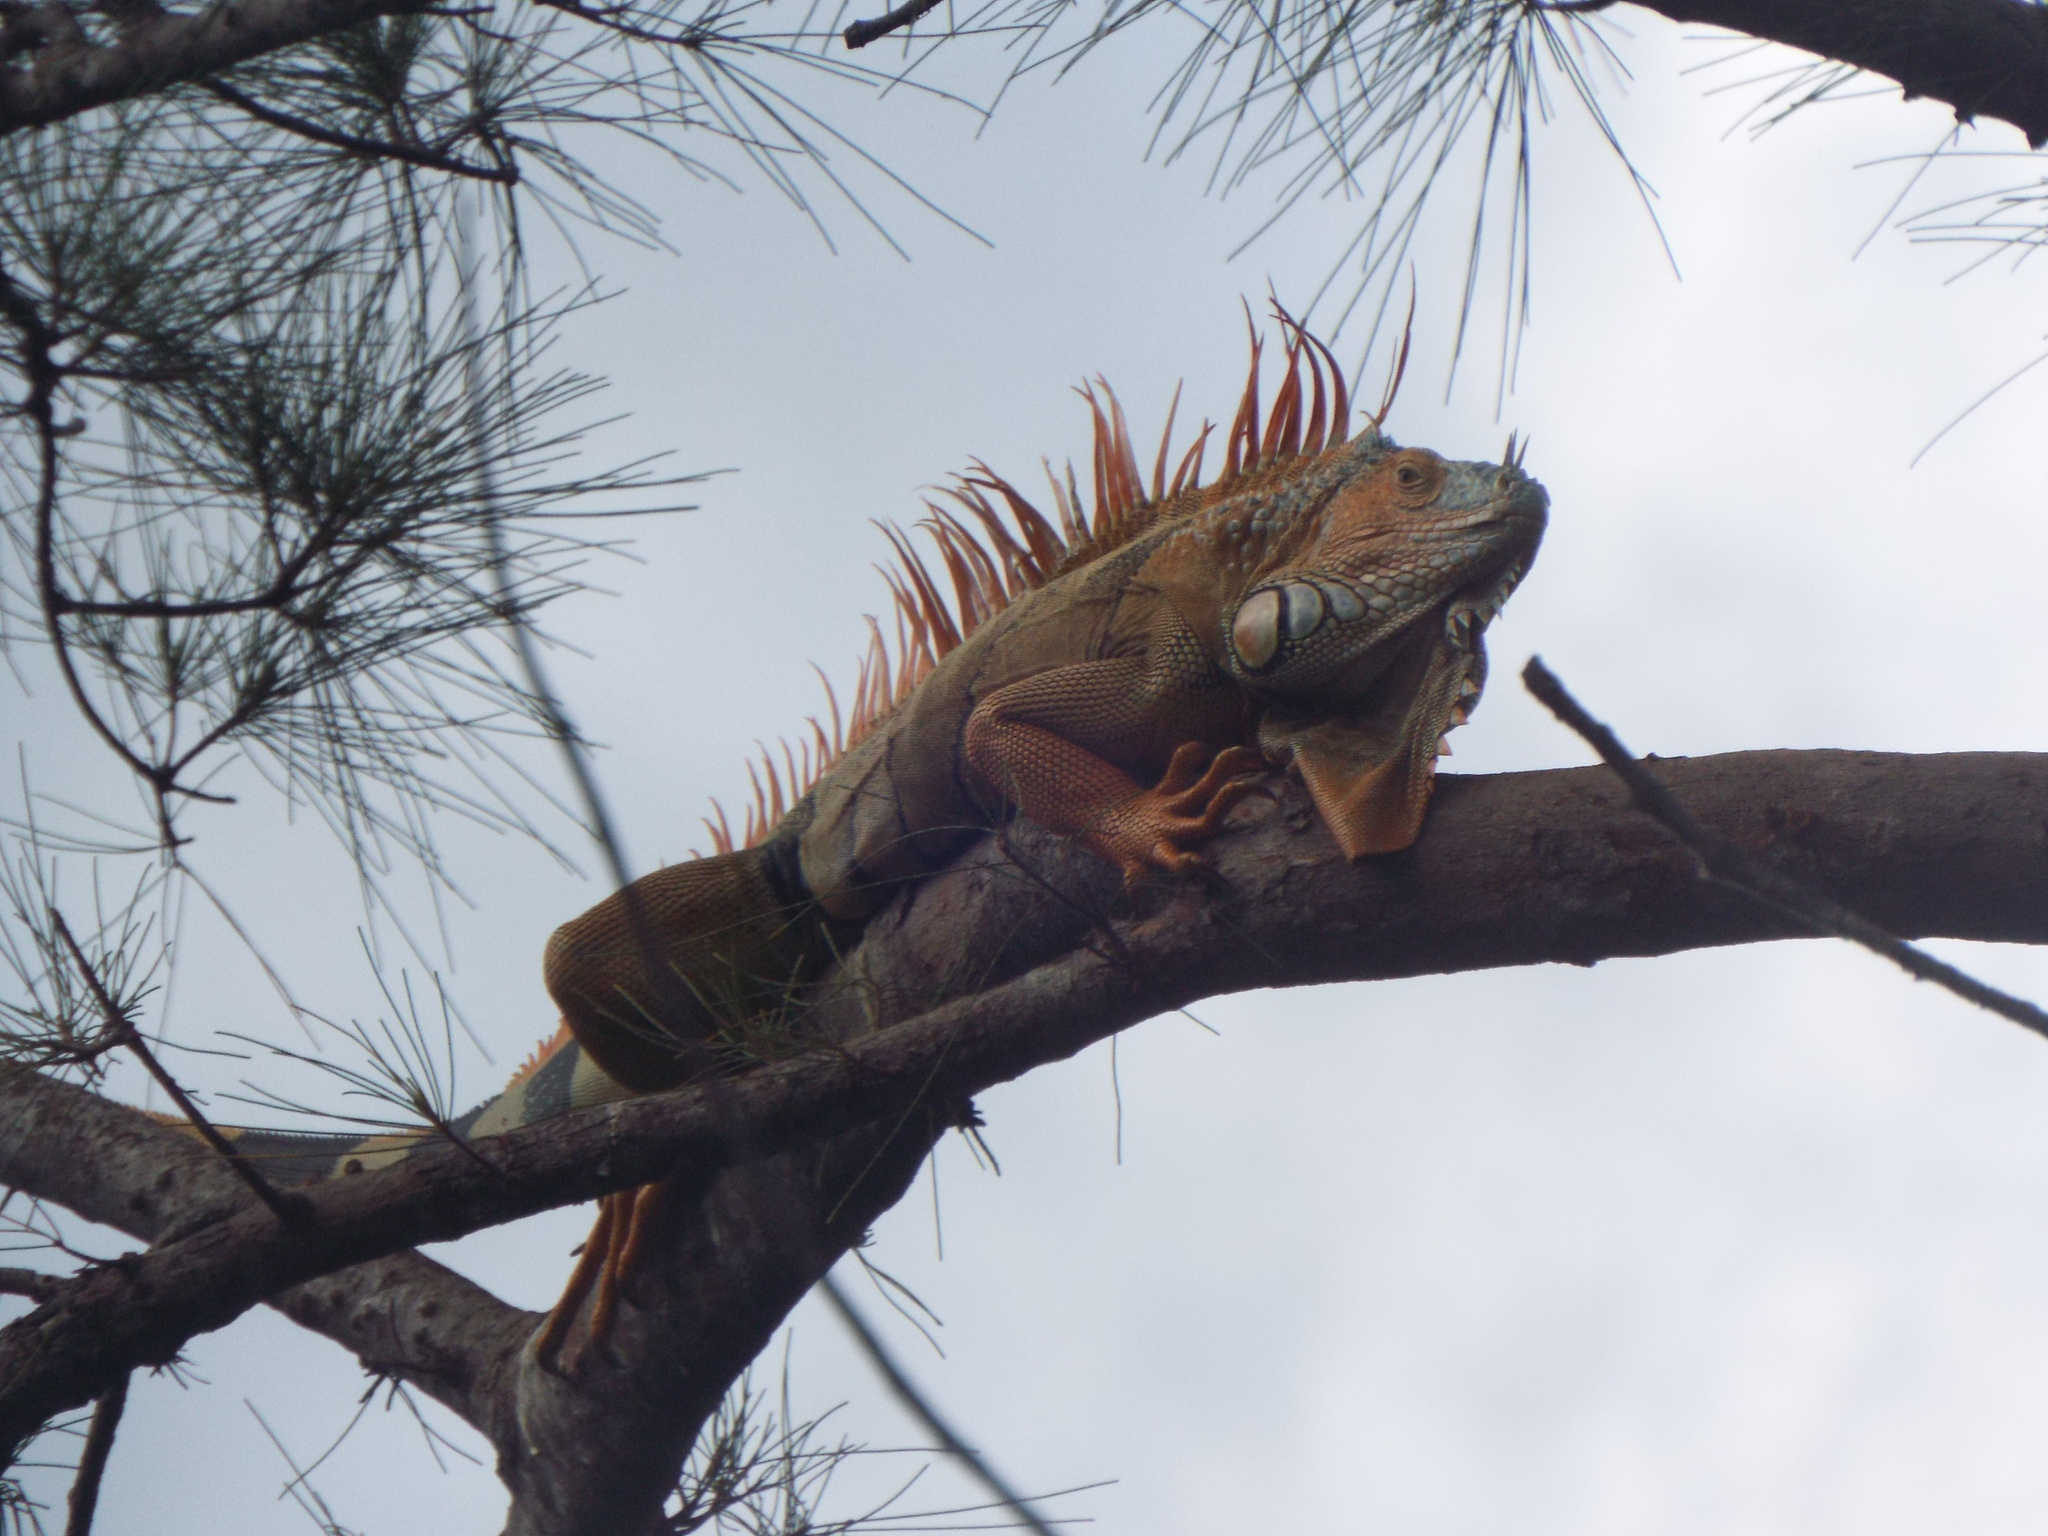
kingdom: Animalia
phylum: Chordata
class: Squamata
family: Iguanidae
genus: Iguana
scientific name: Iguana iguana
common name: Green iguana
